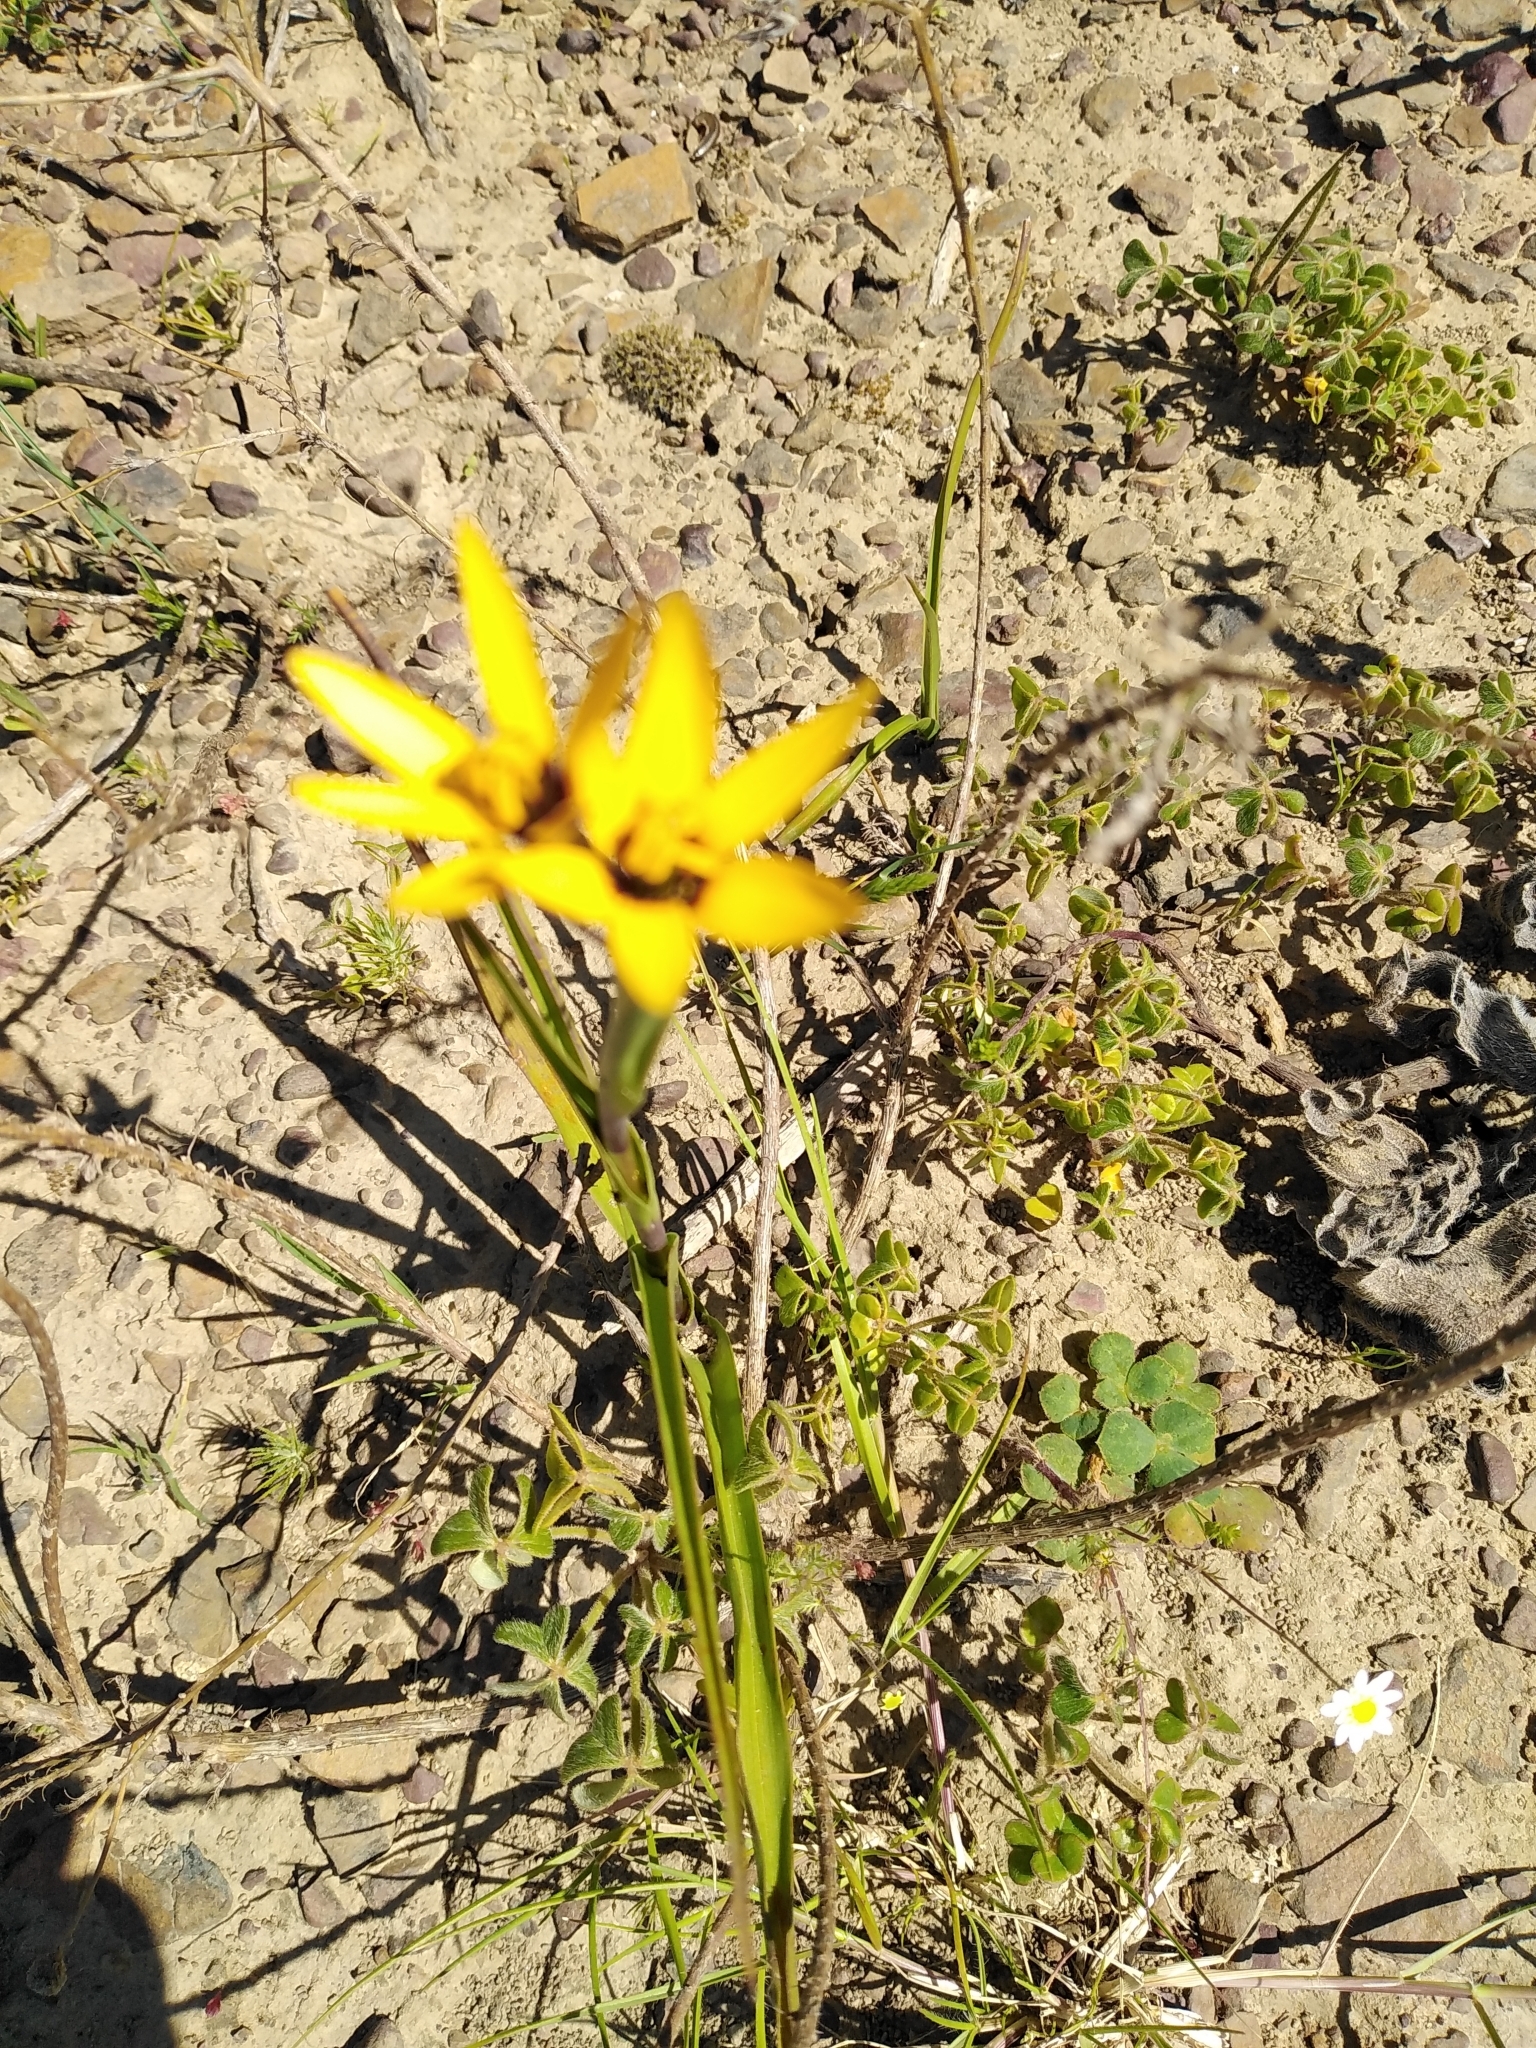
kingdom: Plantae
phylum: Tracheophyta
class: Liliopsida
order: Liliales
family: Colchicaceae
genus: Baeometra
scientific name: Baeometra uniflora
